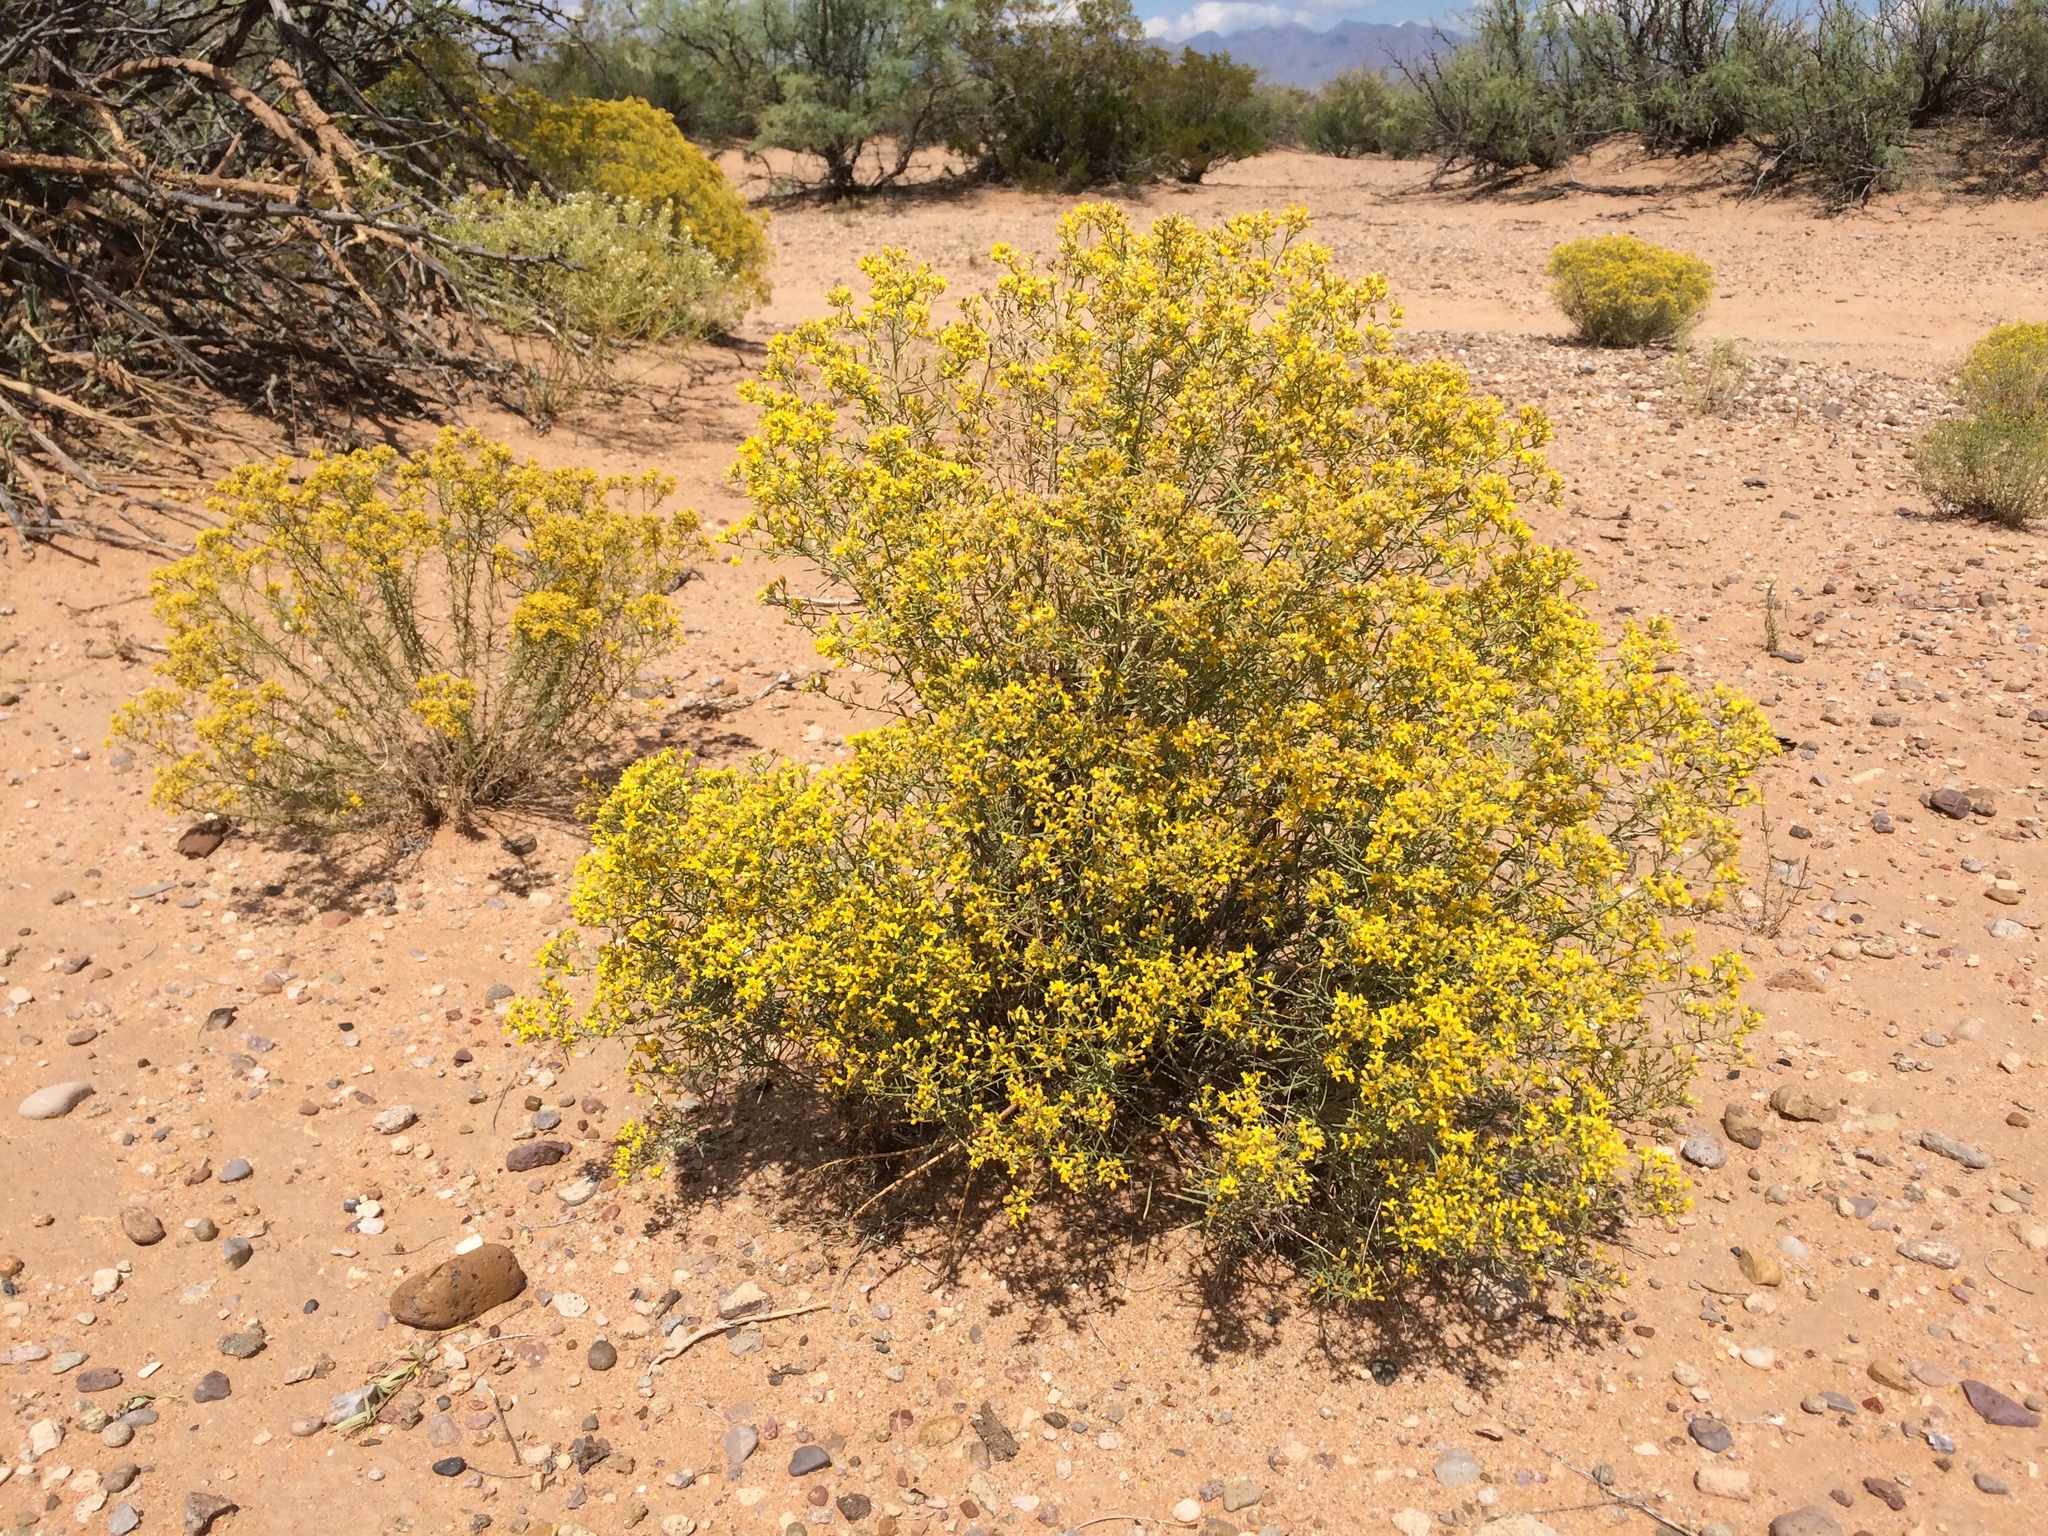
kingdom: Plantae
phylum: Tracheophyta
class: Magnoliopsida
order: Asterales
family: Asteraceae
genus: Gutierrezia
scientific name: Gutierrezia sarothrae
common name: Broom snakeweed
